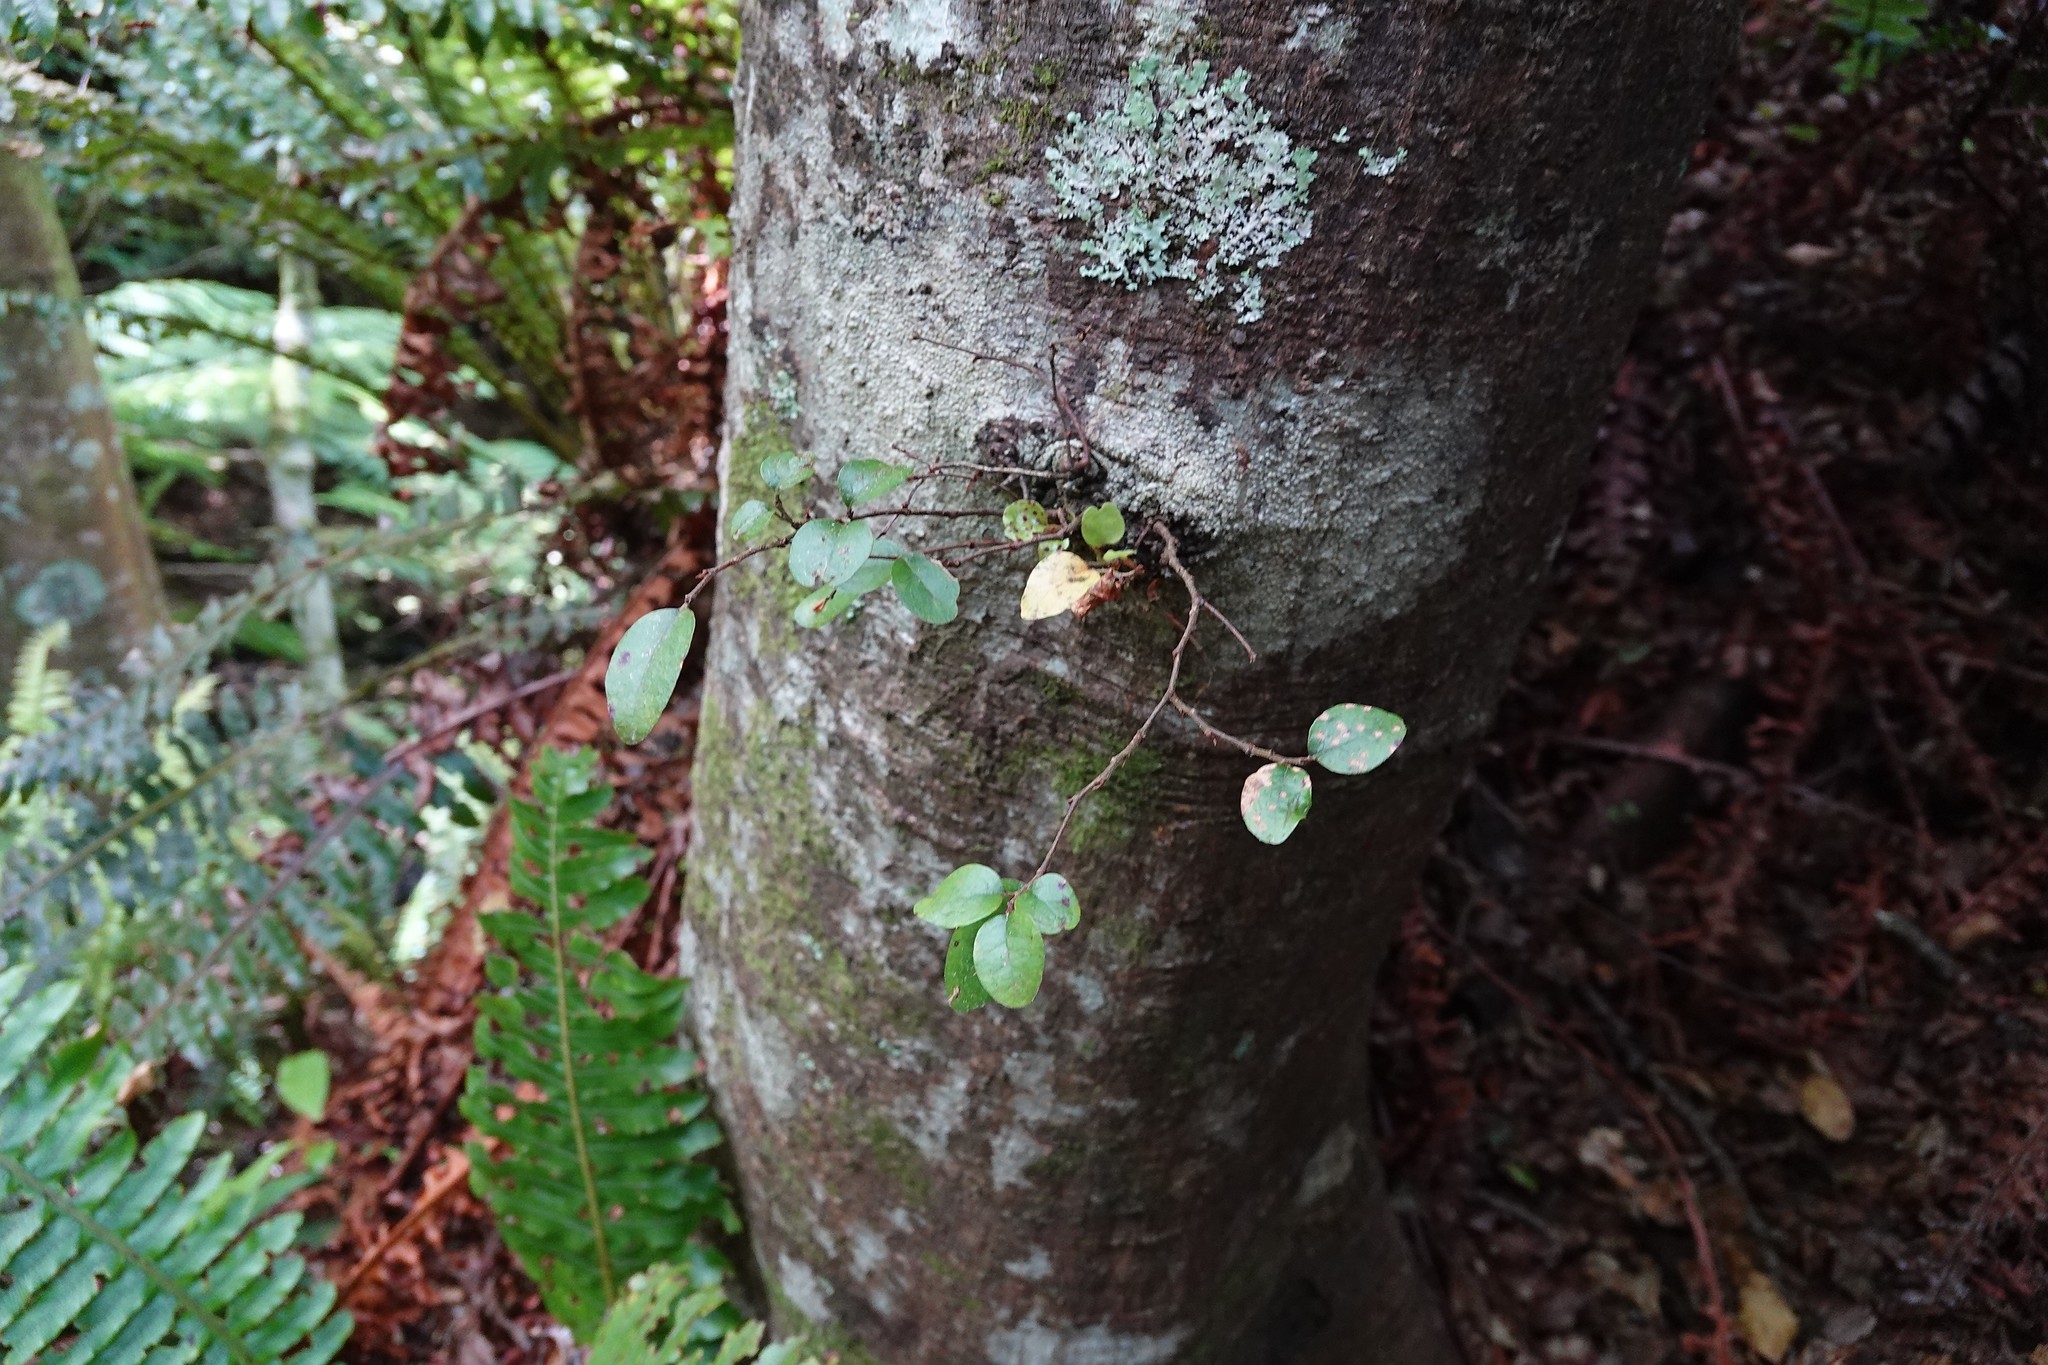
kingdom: Plantae
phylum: Tracheophyta
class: Magnoliopsida
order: Fagales
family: Nothofagaceae
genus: Nothofagus
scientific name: Nothofagus solandri
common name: Black beech
